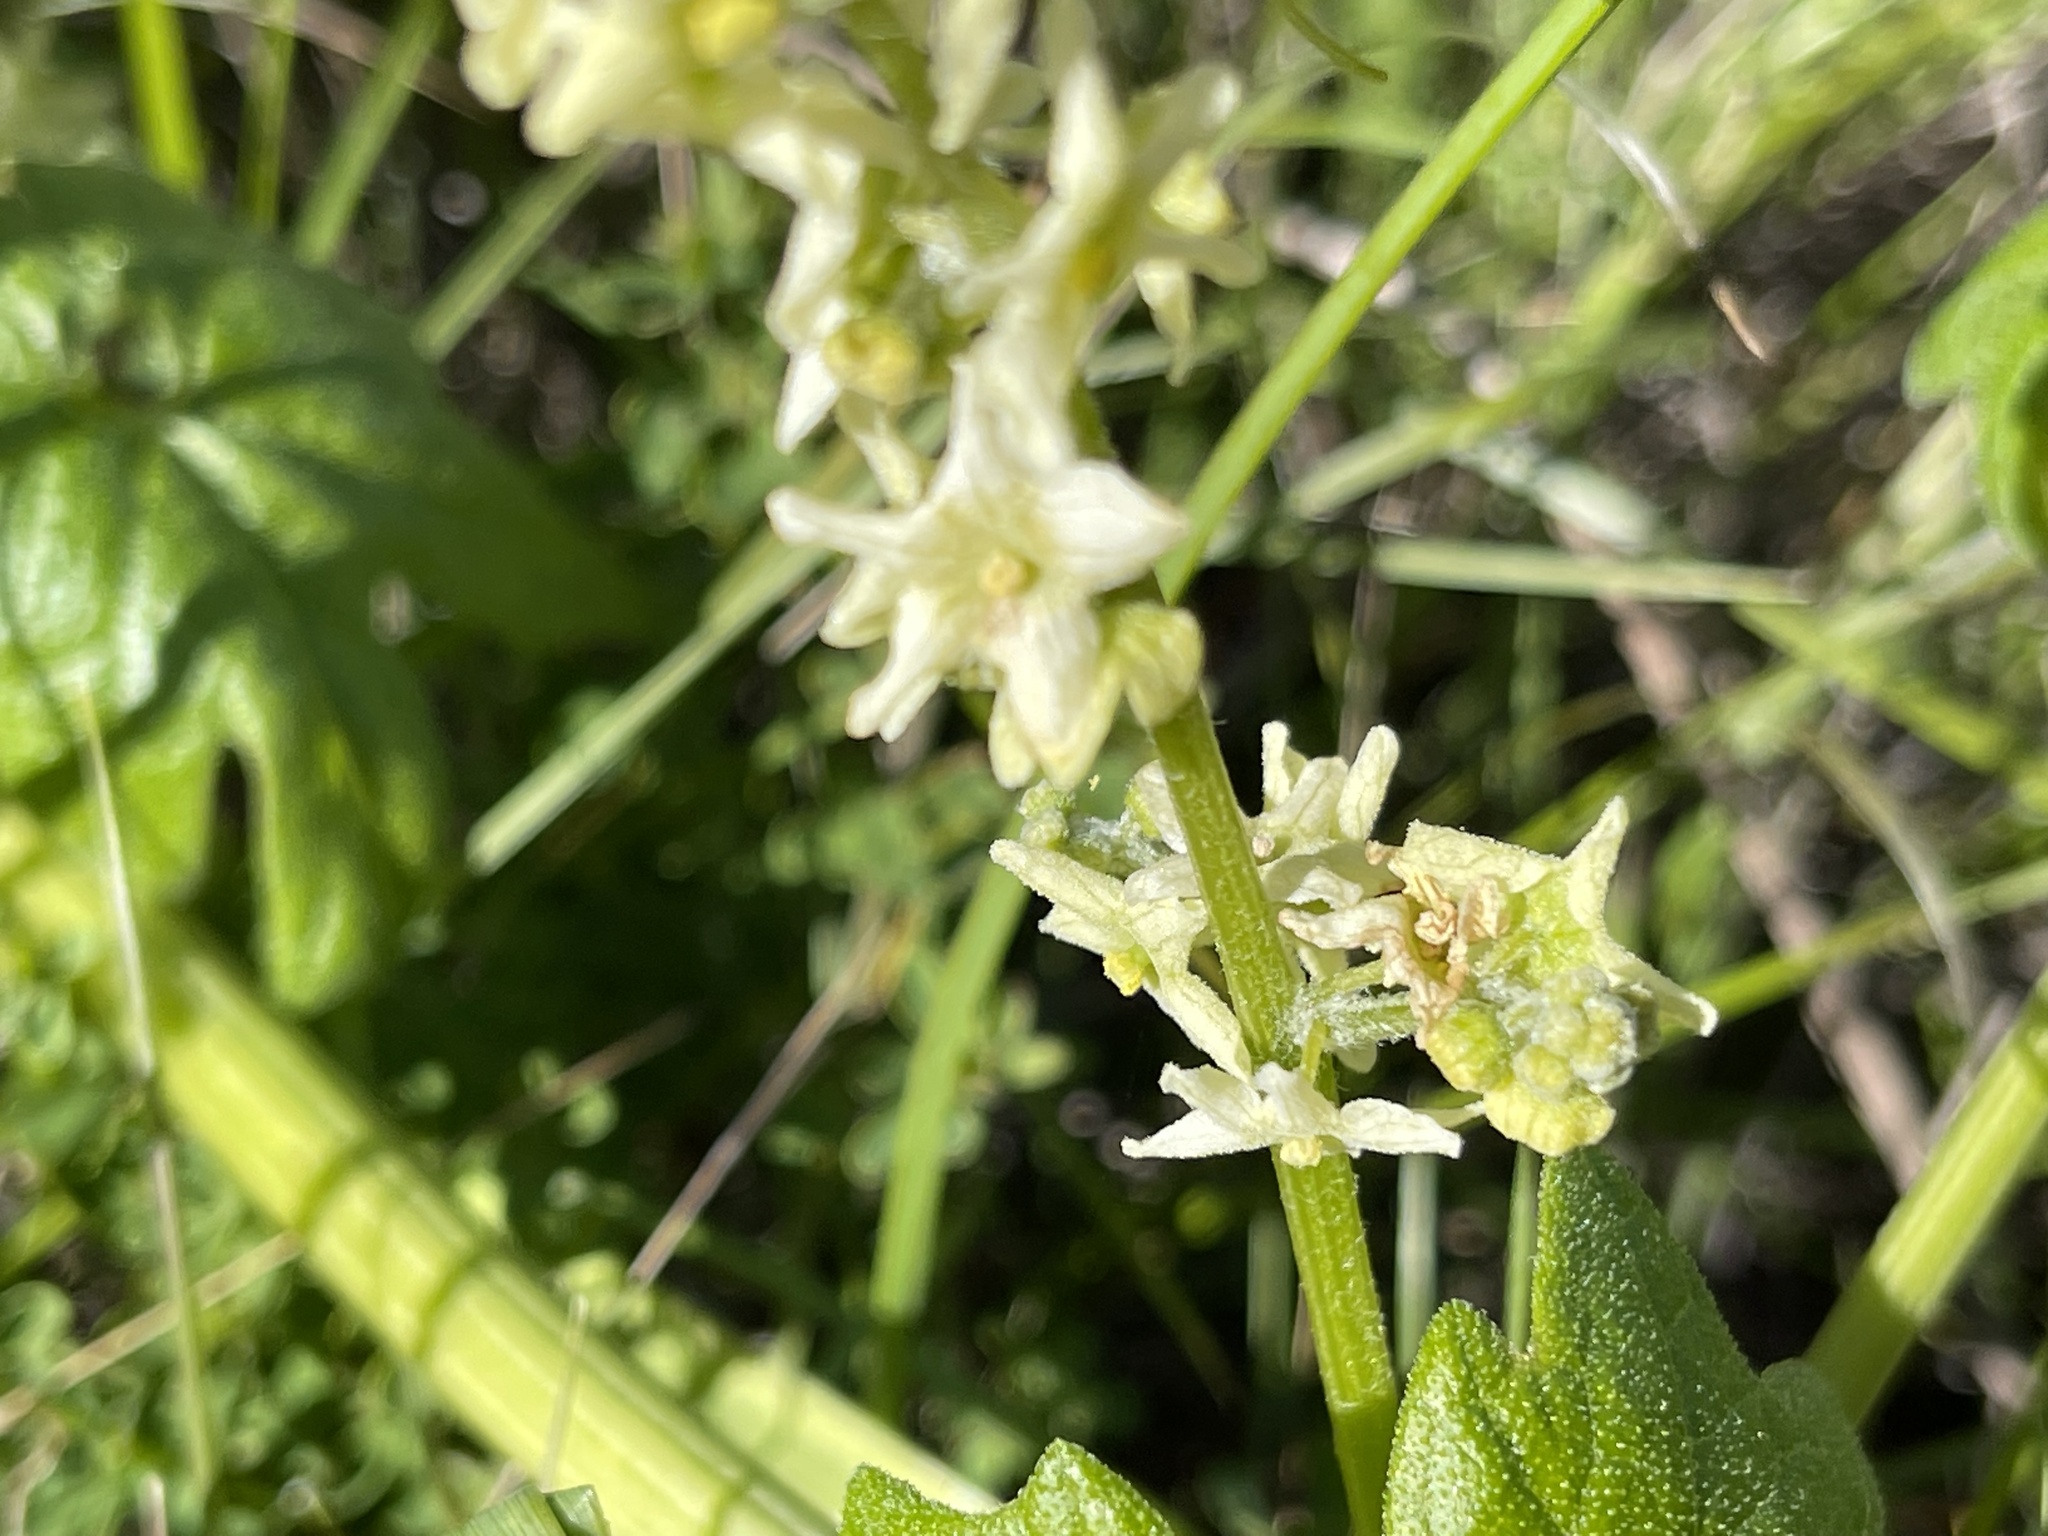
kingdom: Plantae
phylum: Tracheophyta
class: Magnoliopsida
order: Cucurbitales
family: Cucurbitaceae
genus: Marah
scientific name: Marah fabacea
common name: California manroot
